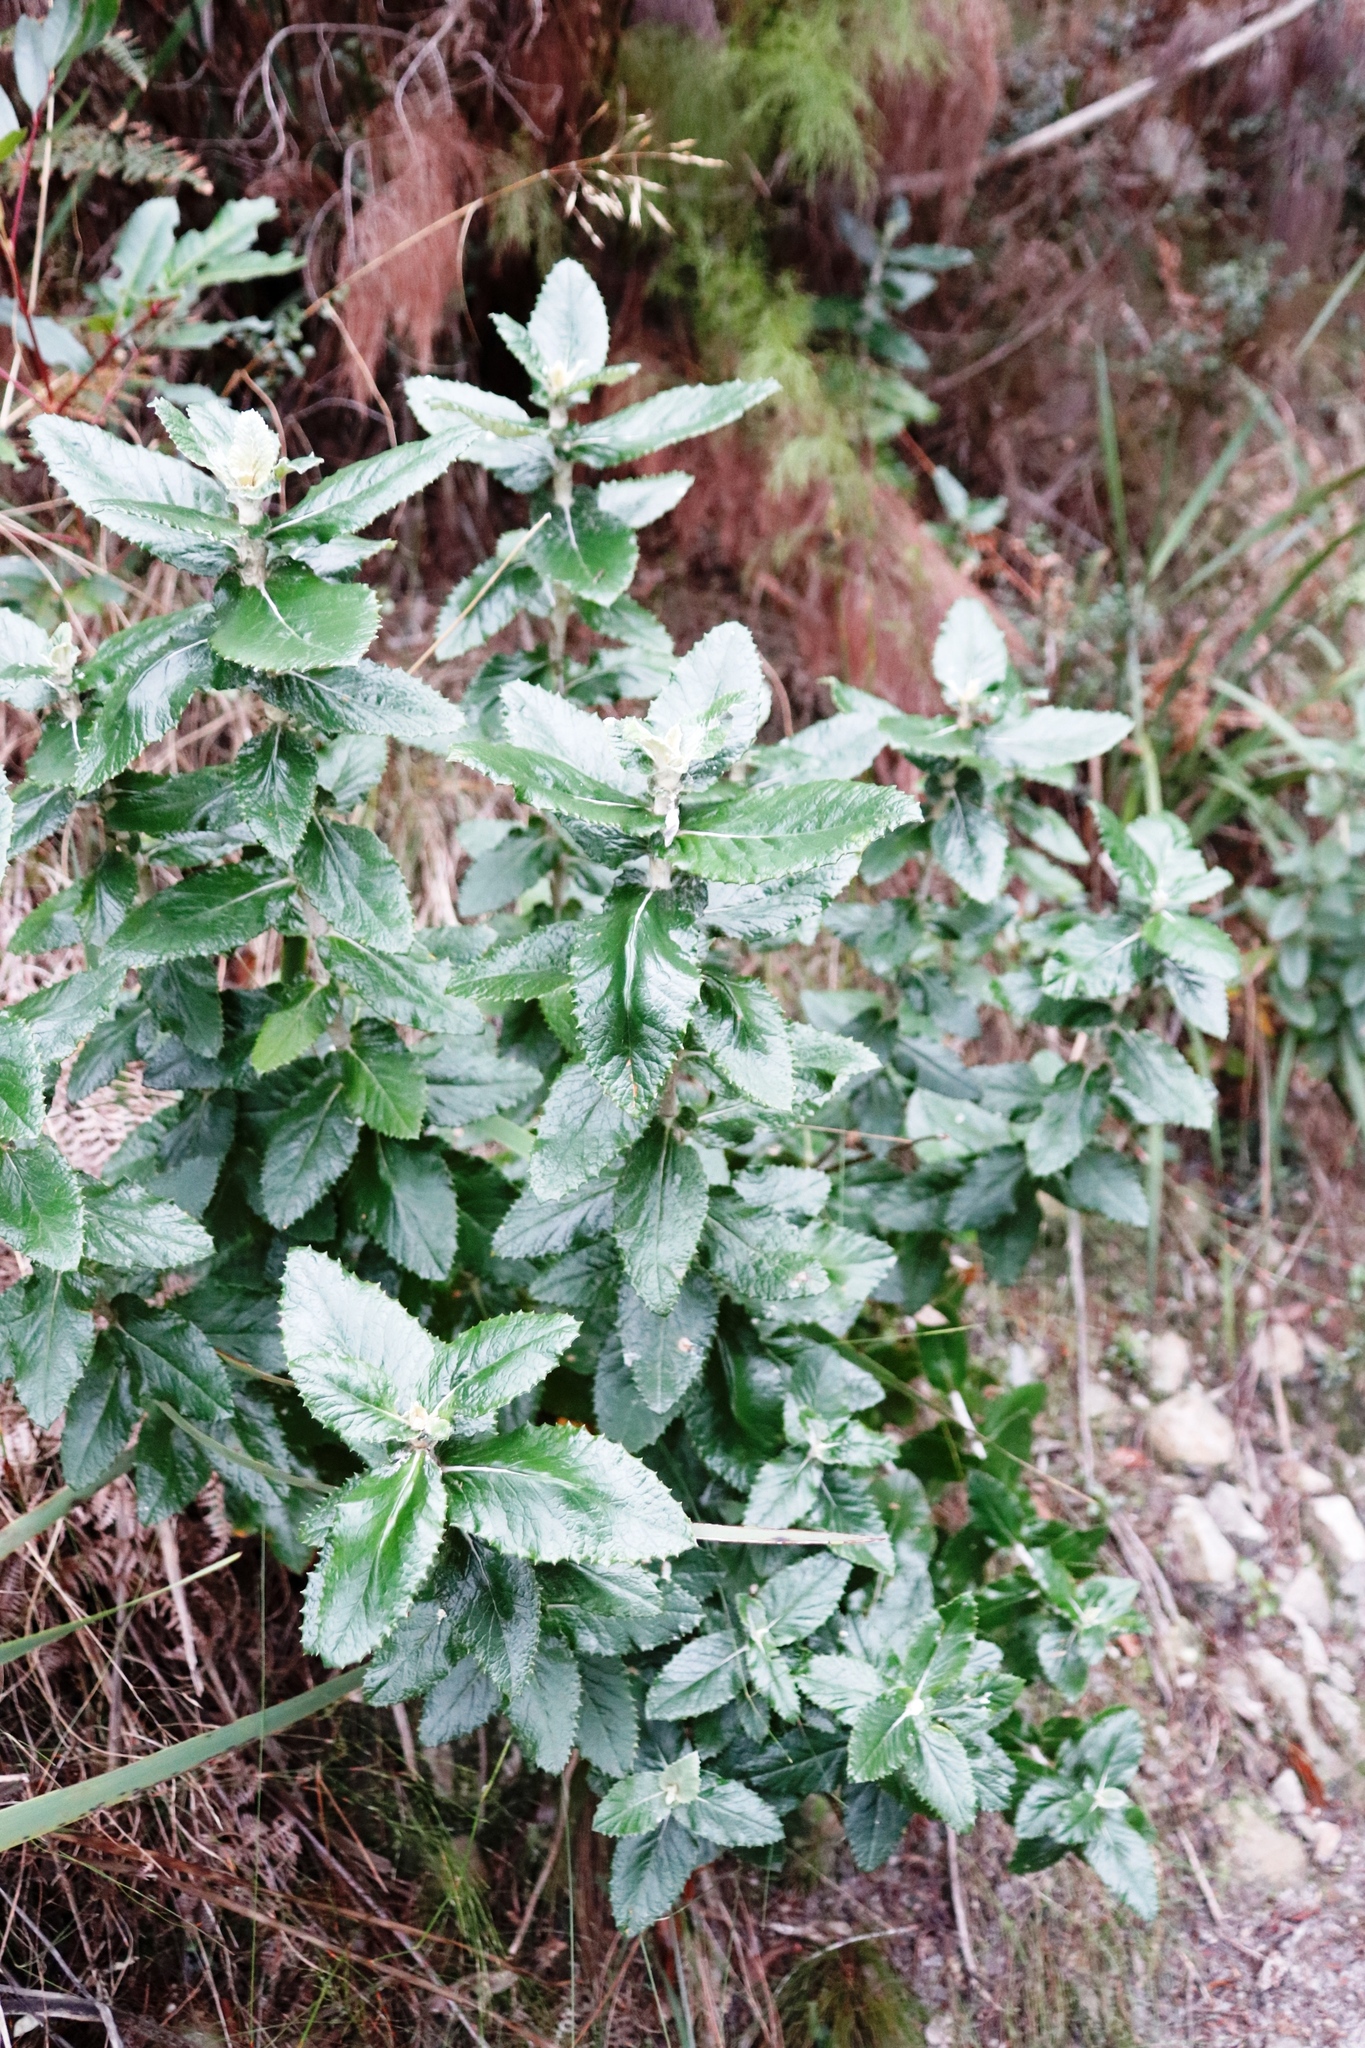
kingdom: Plantae
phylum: Tracheophyta
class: Magnoliopsida
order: Cornales
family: Curtisiaceae
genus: Curtisia
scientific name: Curtisia dentata
